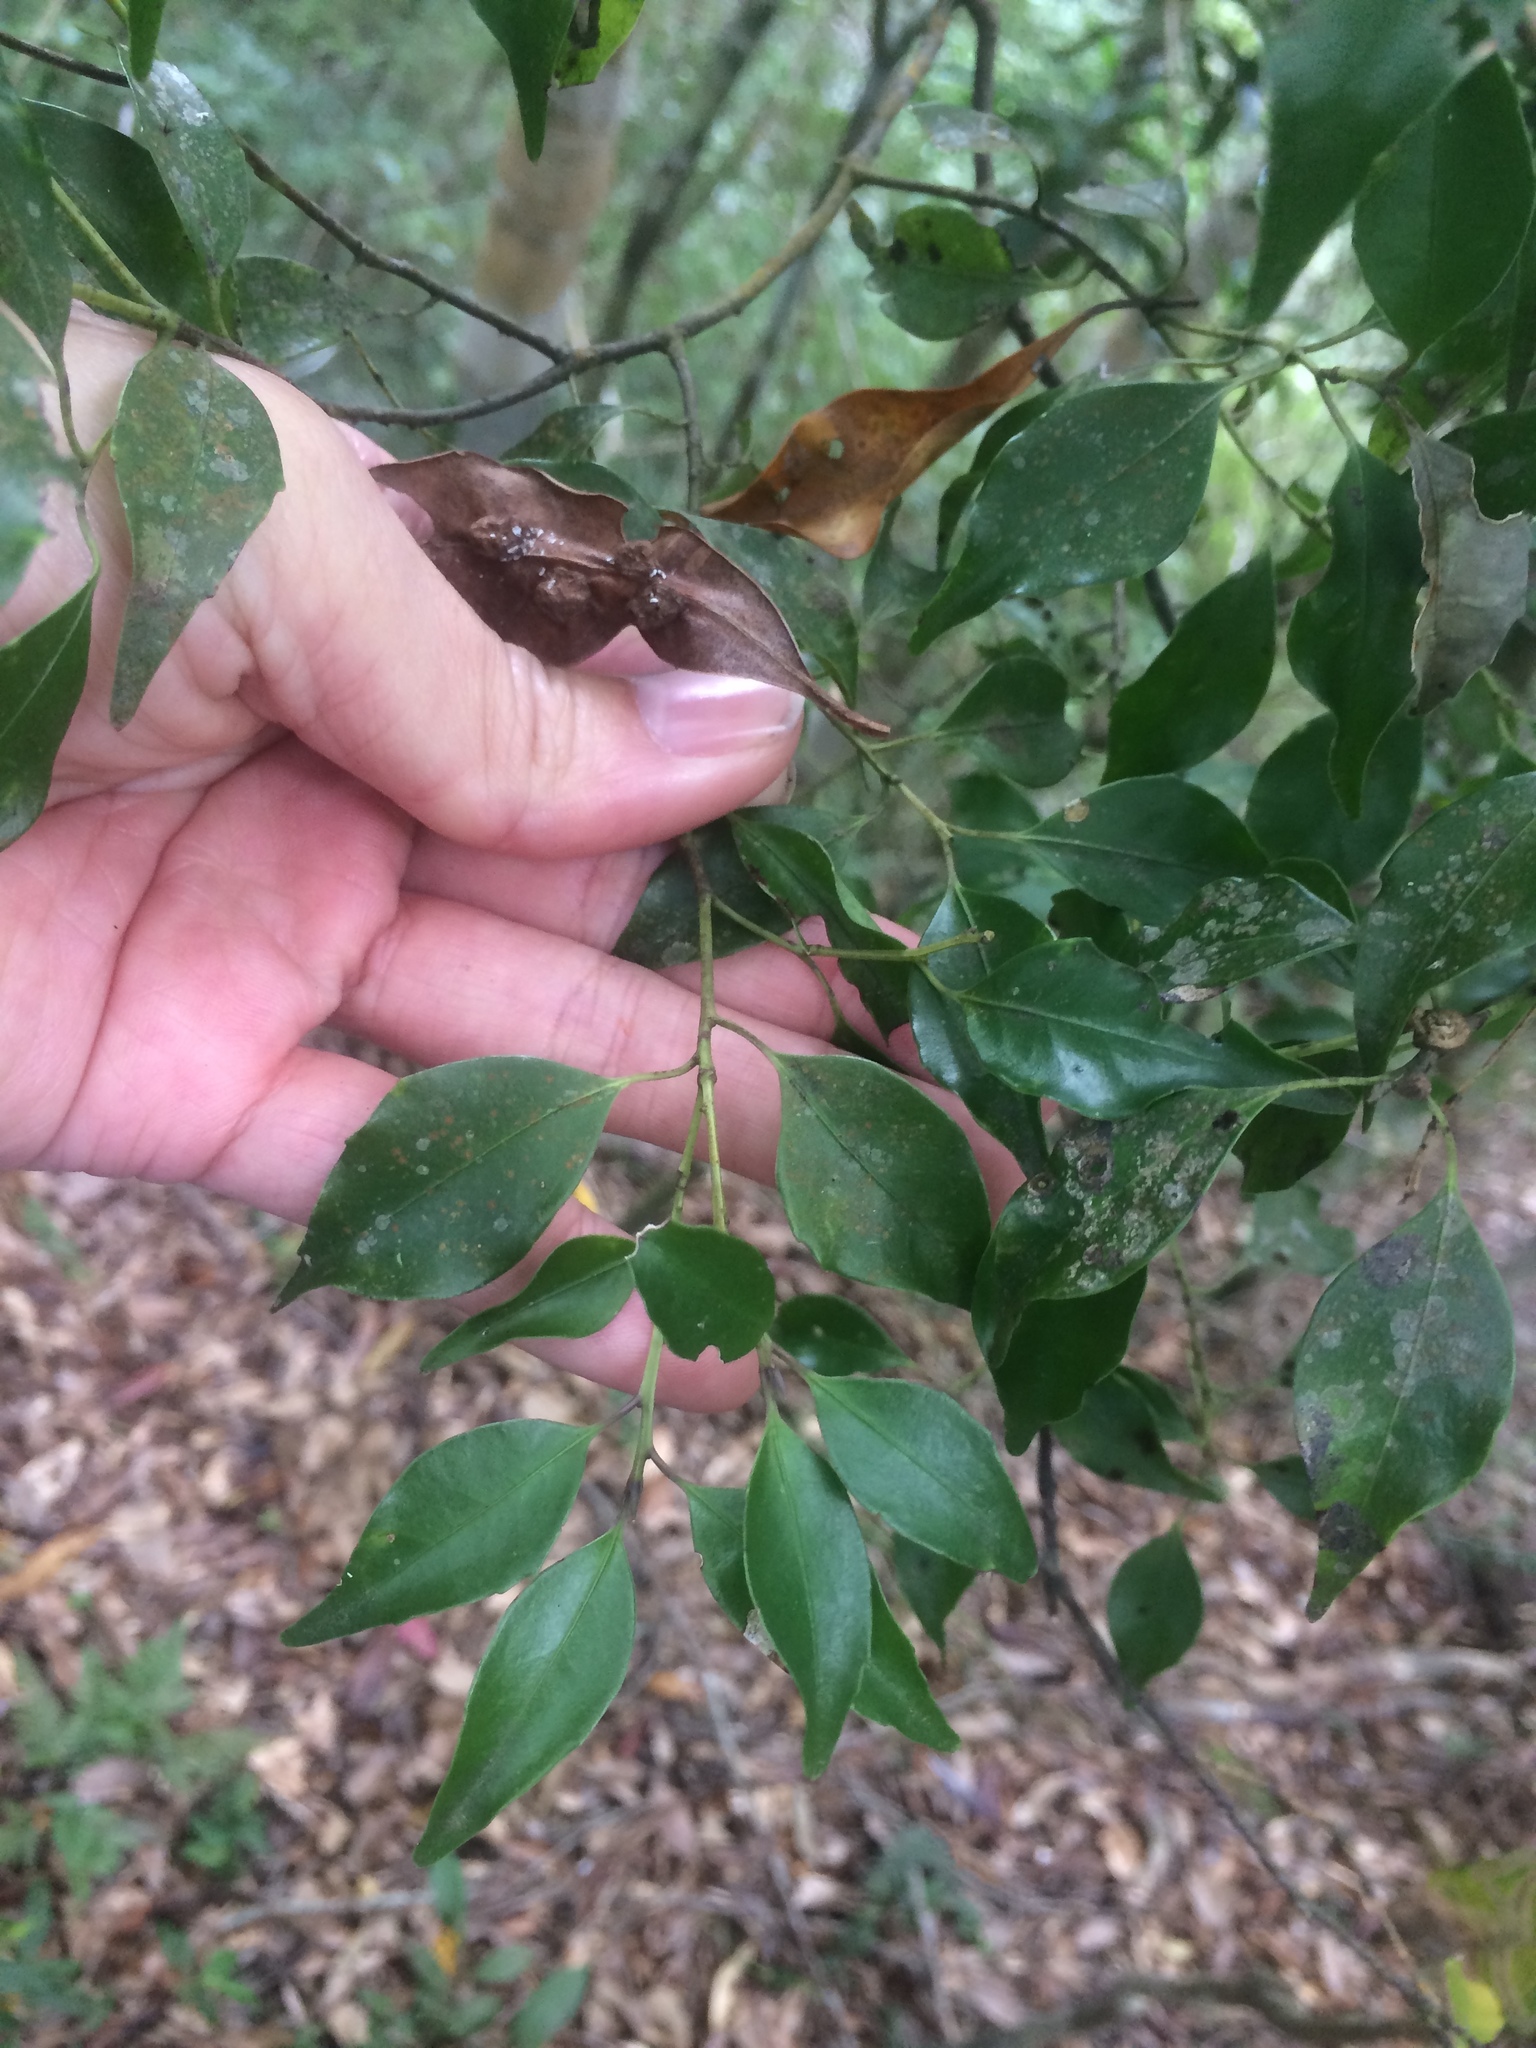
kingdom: Plantae
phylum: Tracheophyta
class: Magnoliopsida
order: Ericales
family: Symplocaceae
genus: Symplocos
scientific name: Symplocos shilanensis
